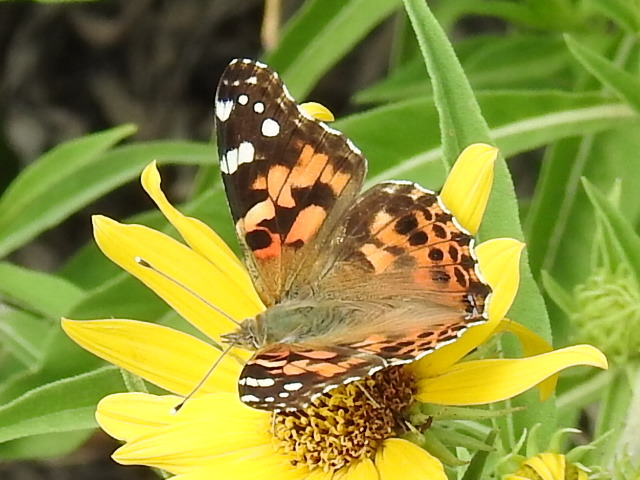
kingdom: Animalia
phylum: Arthropoda
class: Insecta
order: Lepidoptera
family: Nymphalidae
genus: Vanessa
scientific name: Vanessa cardui
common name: Painted lady
